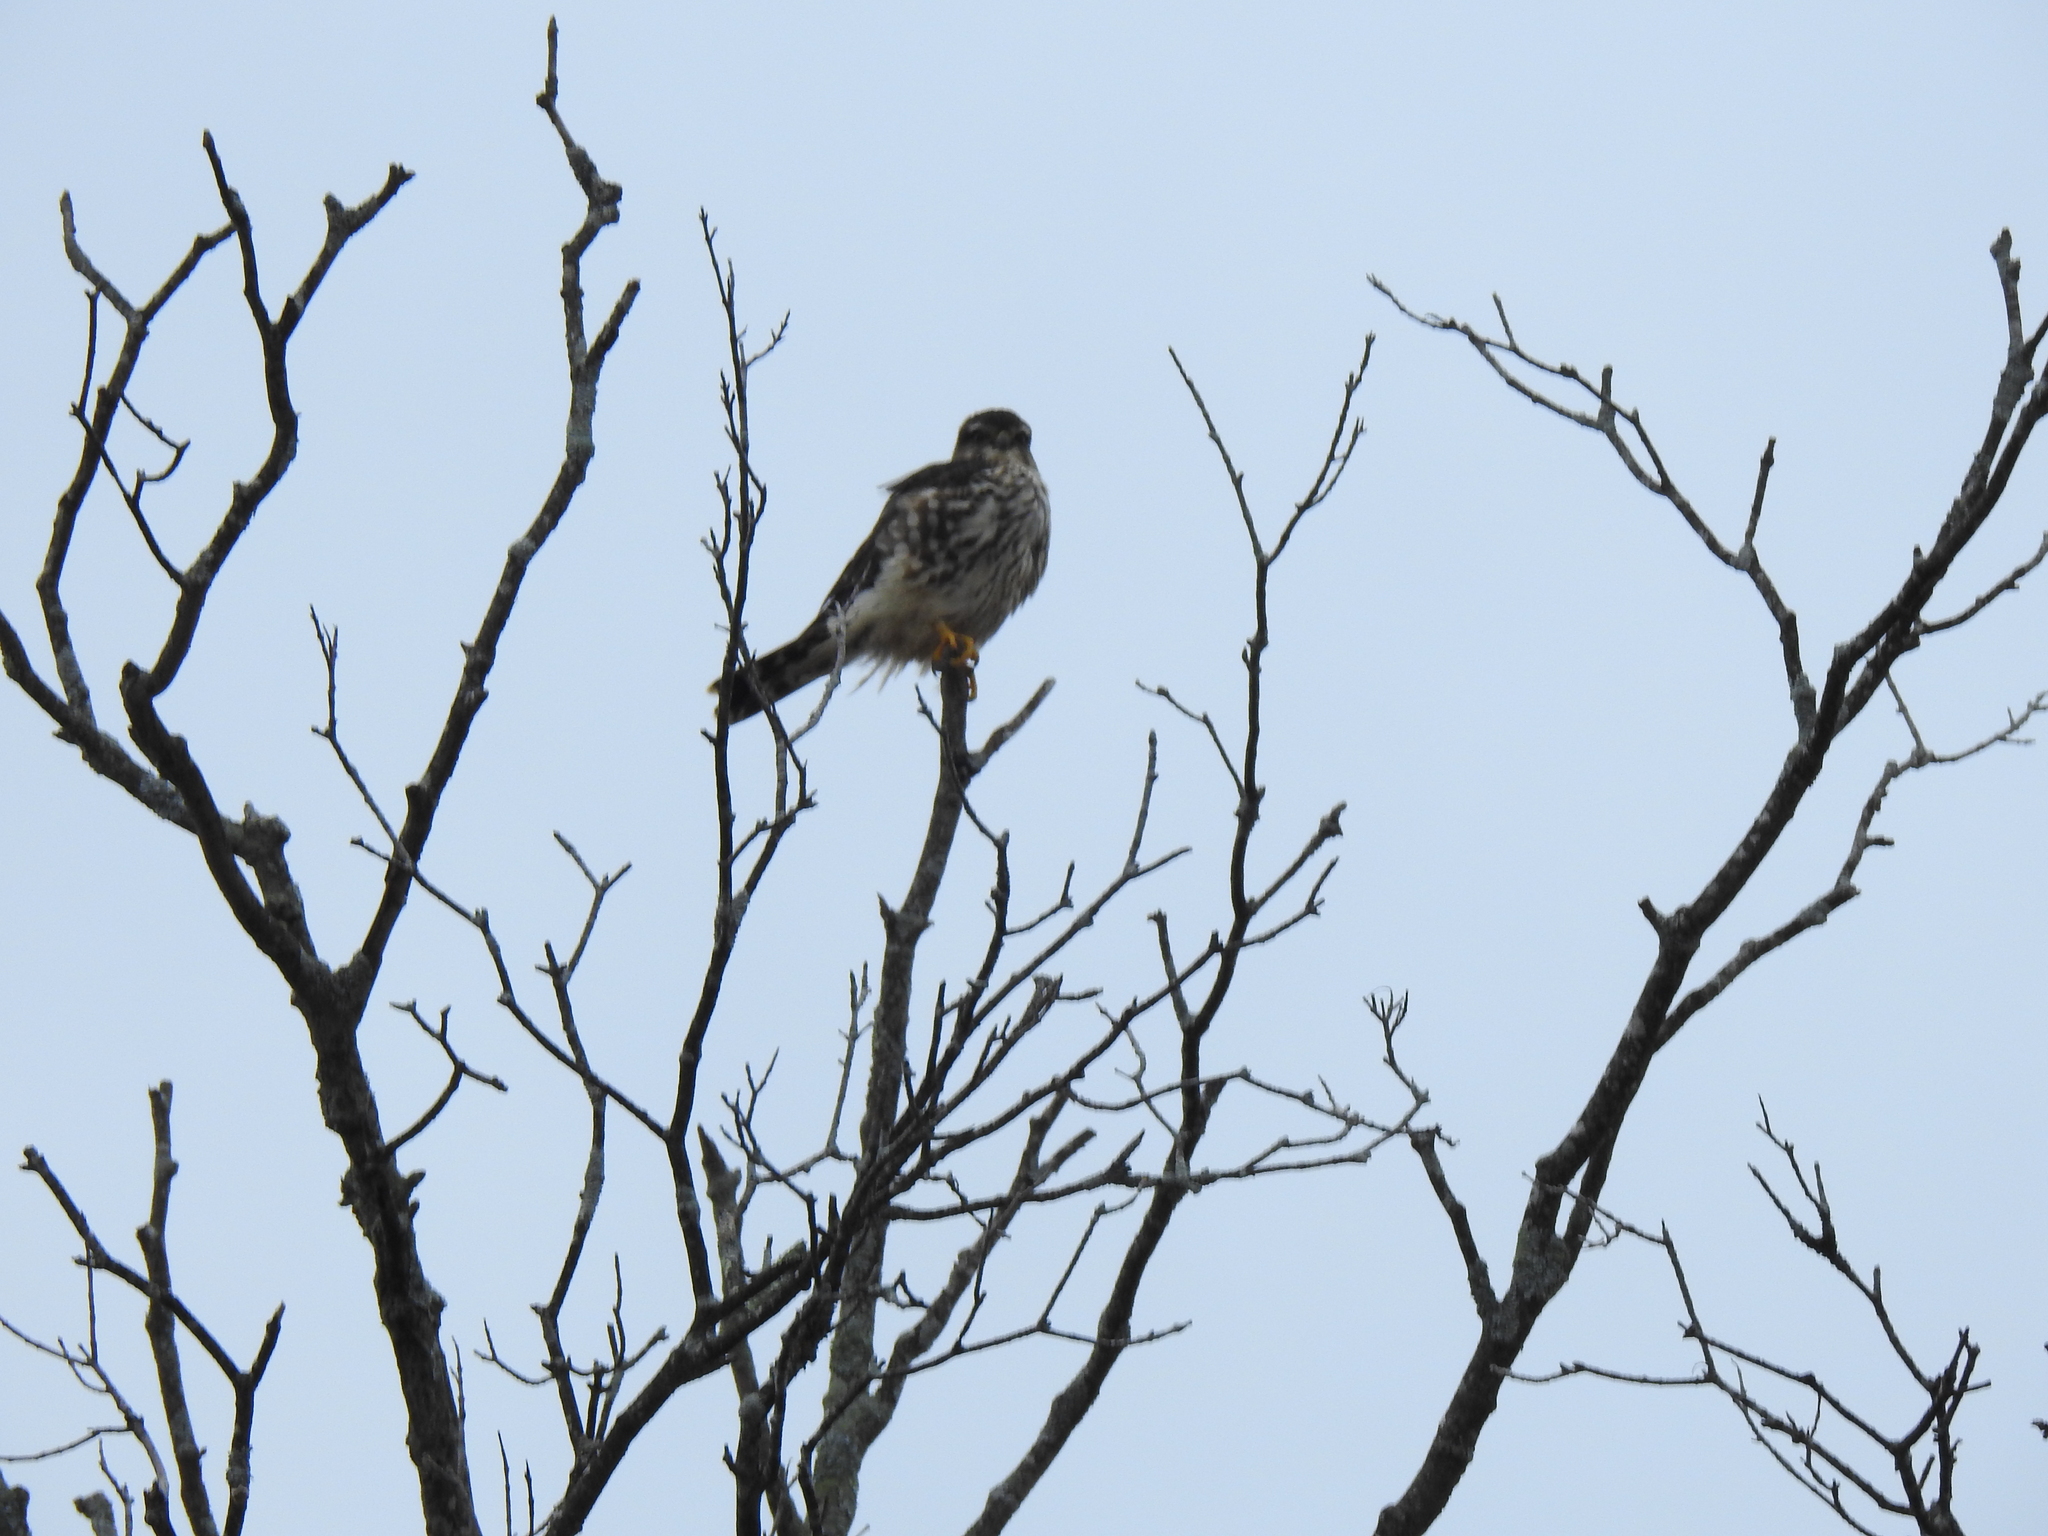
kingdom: Animalia
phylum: Chordata
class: Aves
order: Falconiformes
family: Falconidae
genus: Falco
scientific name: Falco columbarius
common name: Merlin
